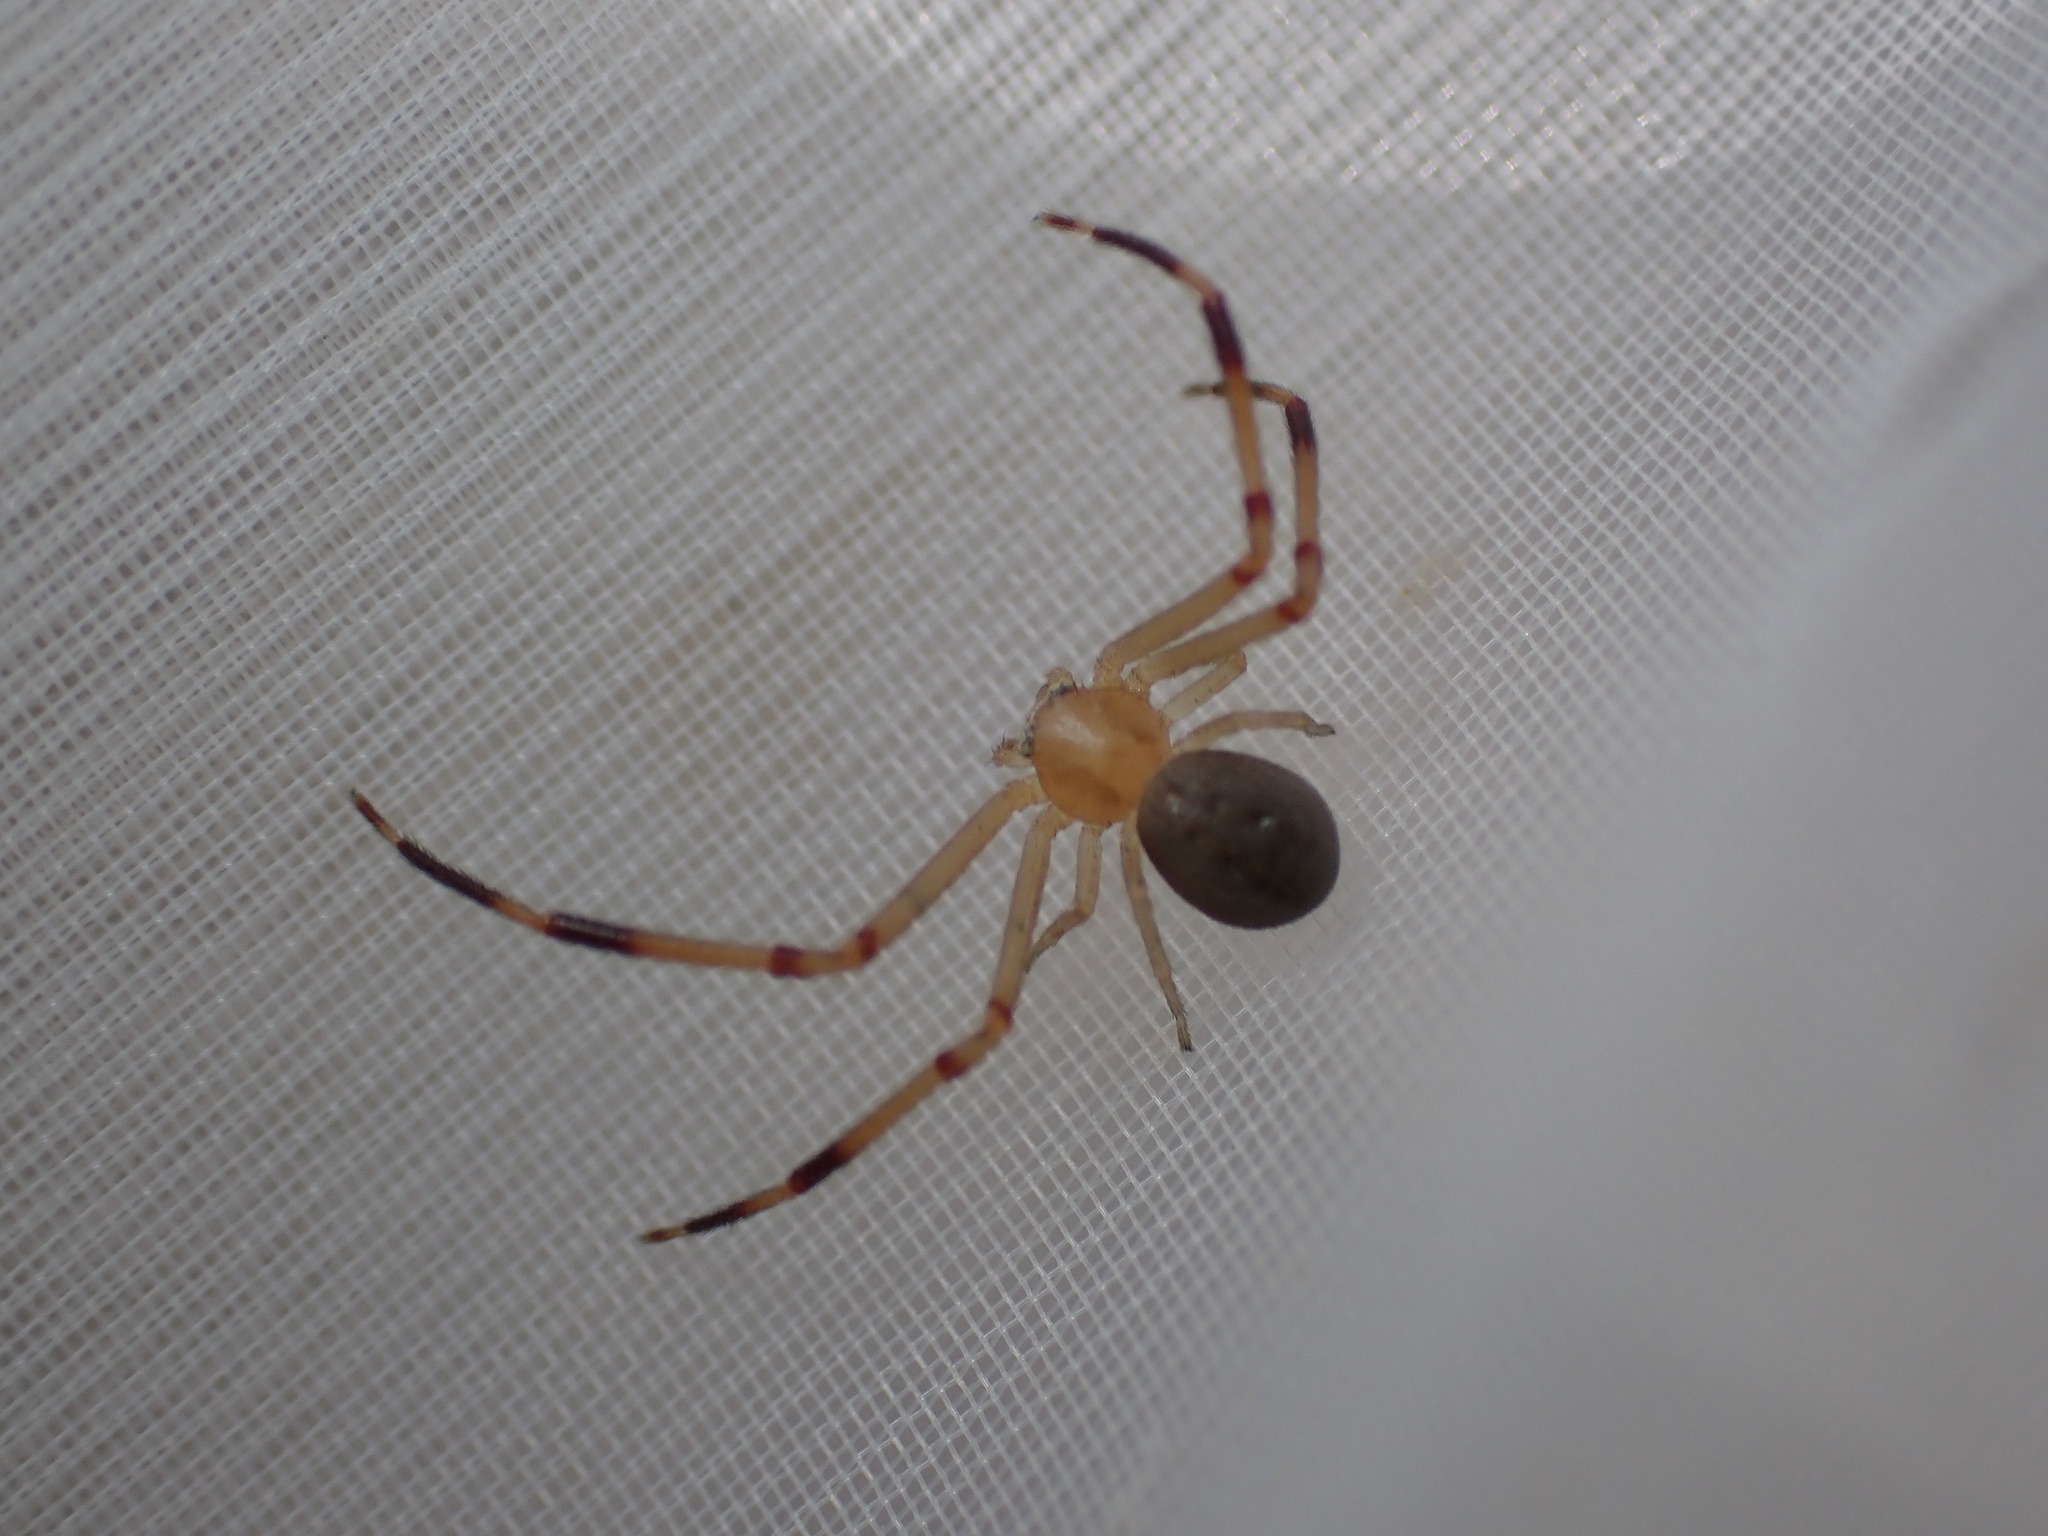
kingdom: Animalia
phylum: Arthropoda
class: Arachnida
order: Araneae
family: Thomisidae
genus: Runcinia
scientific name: Runcinia grammica
